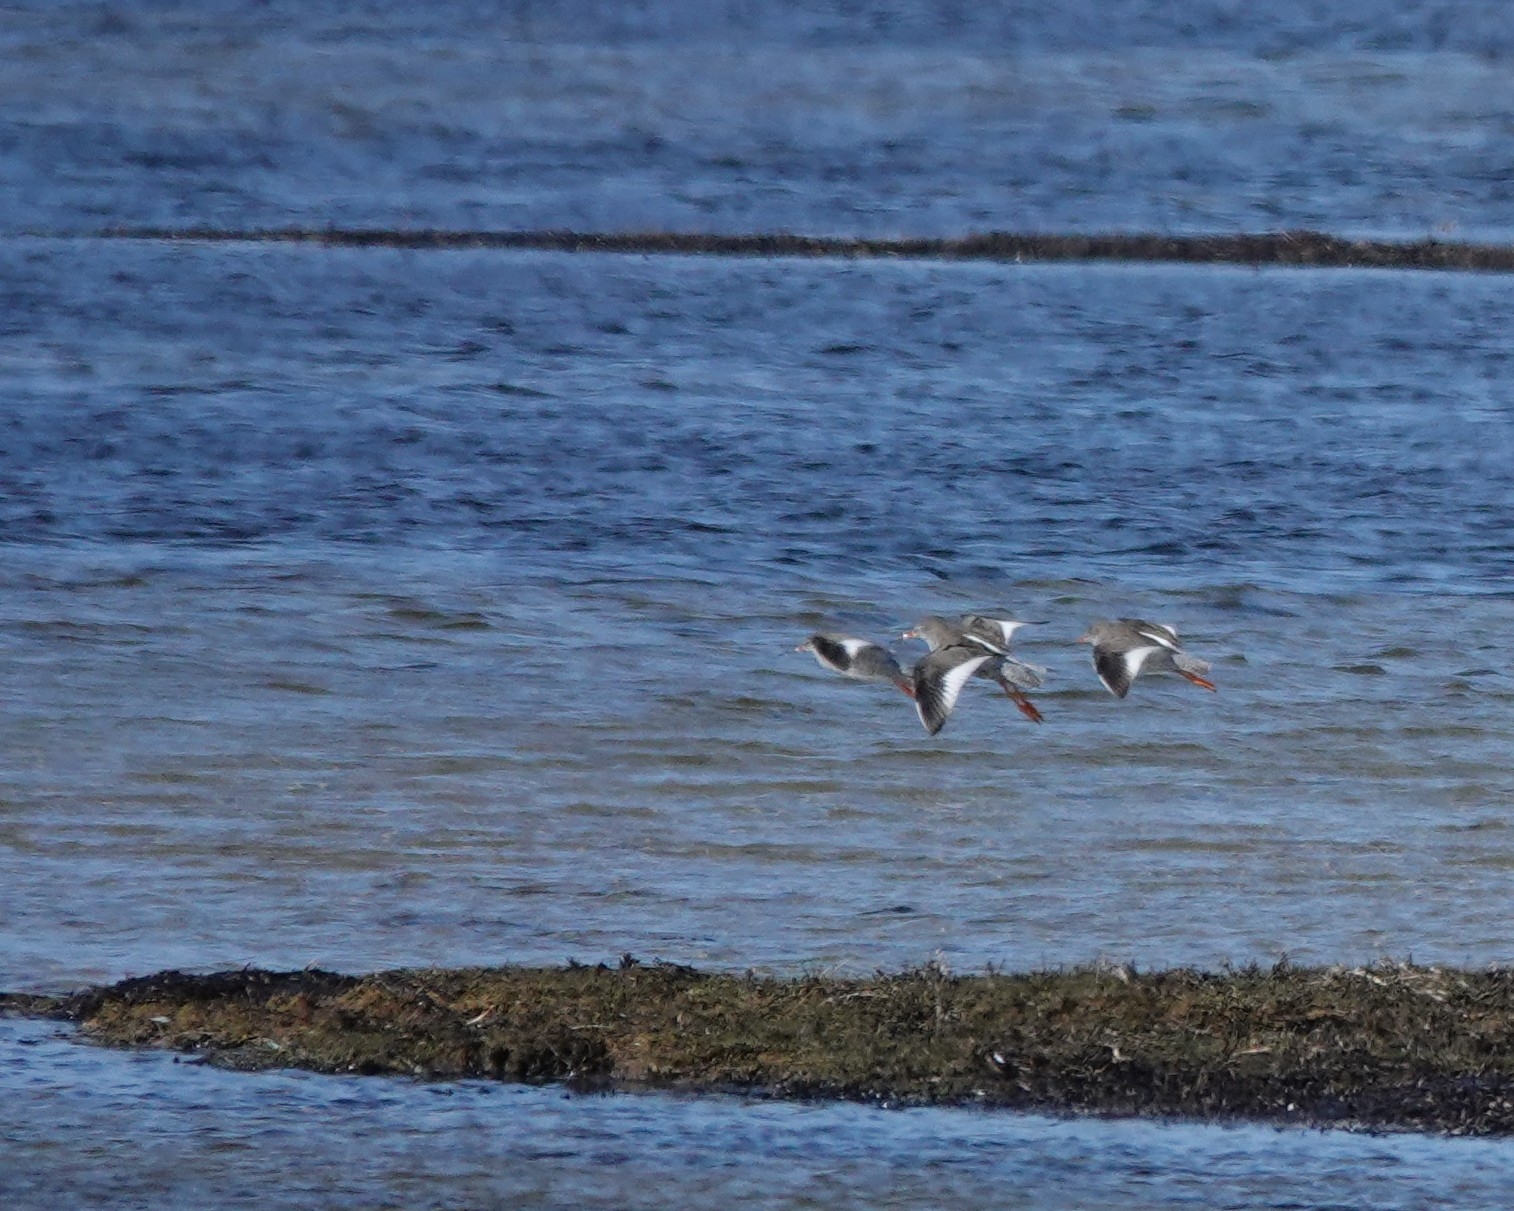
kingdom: Animalia
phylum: Chordata
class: Aves
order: Charadriiformes
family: Scolopacidae
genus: Tringa
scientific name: Tringa totanus
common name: Common redshank
